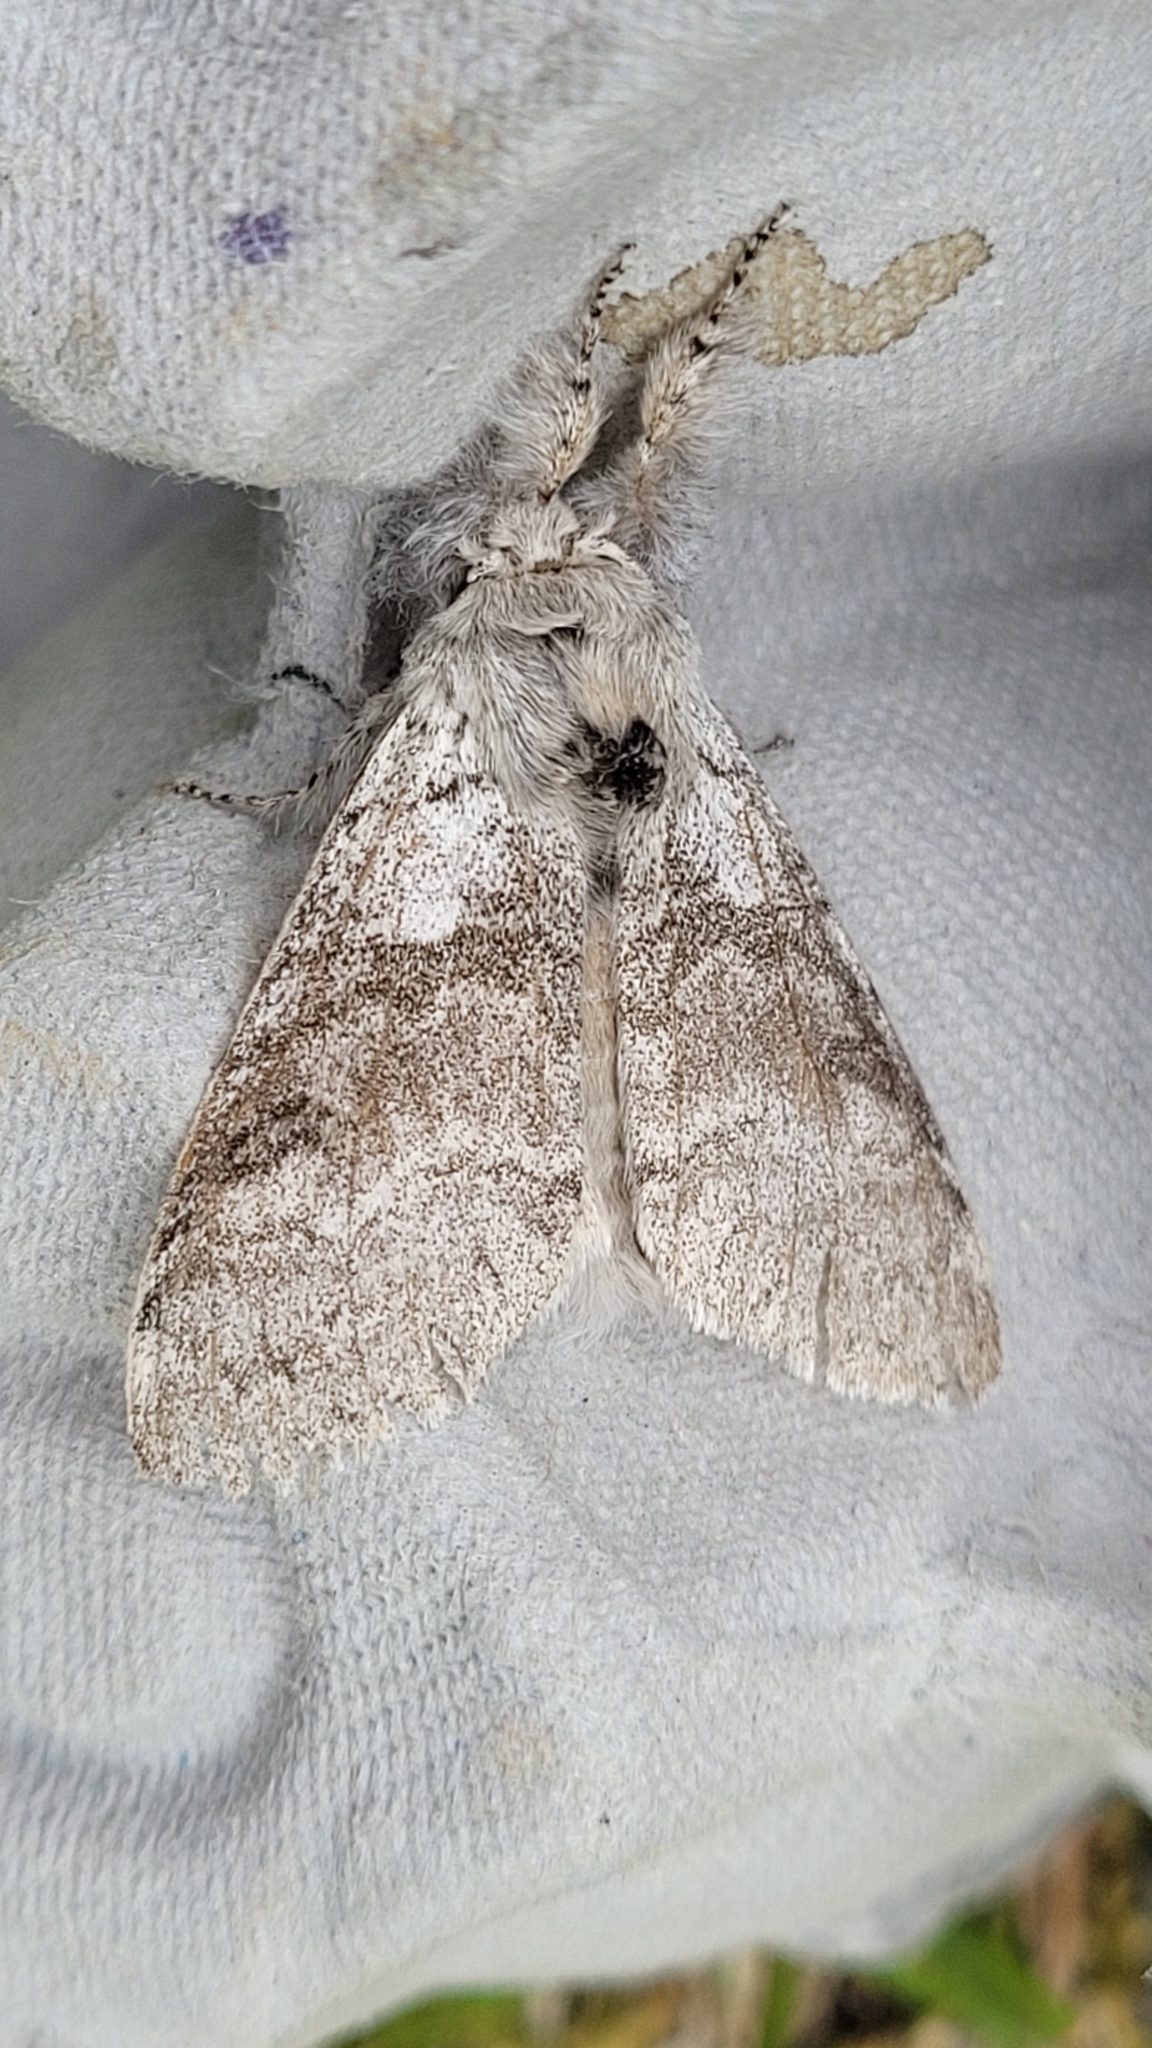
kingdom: Animalia
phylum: Arthropoda
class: Insecta
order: Lepidoptera
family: Erebidae
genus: Calliteara
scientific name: Calliteara pudibunda
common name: Pale tussock
